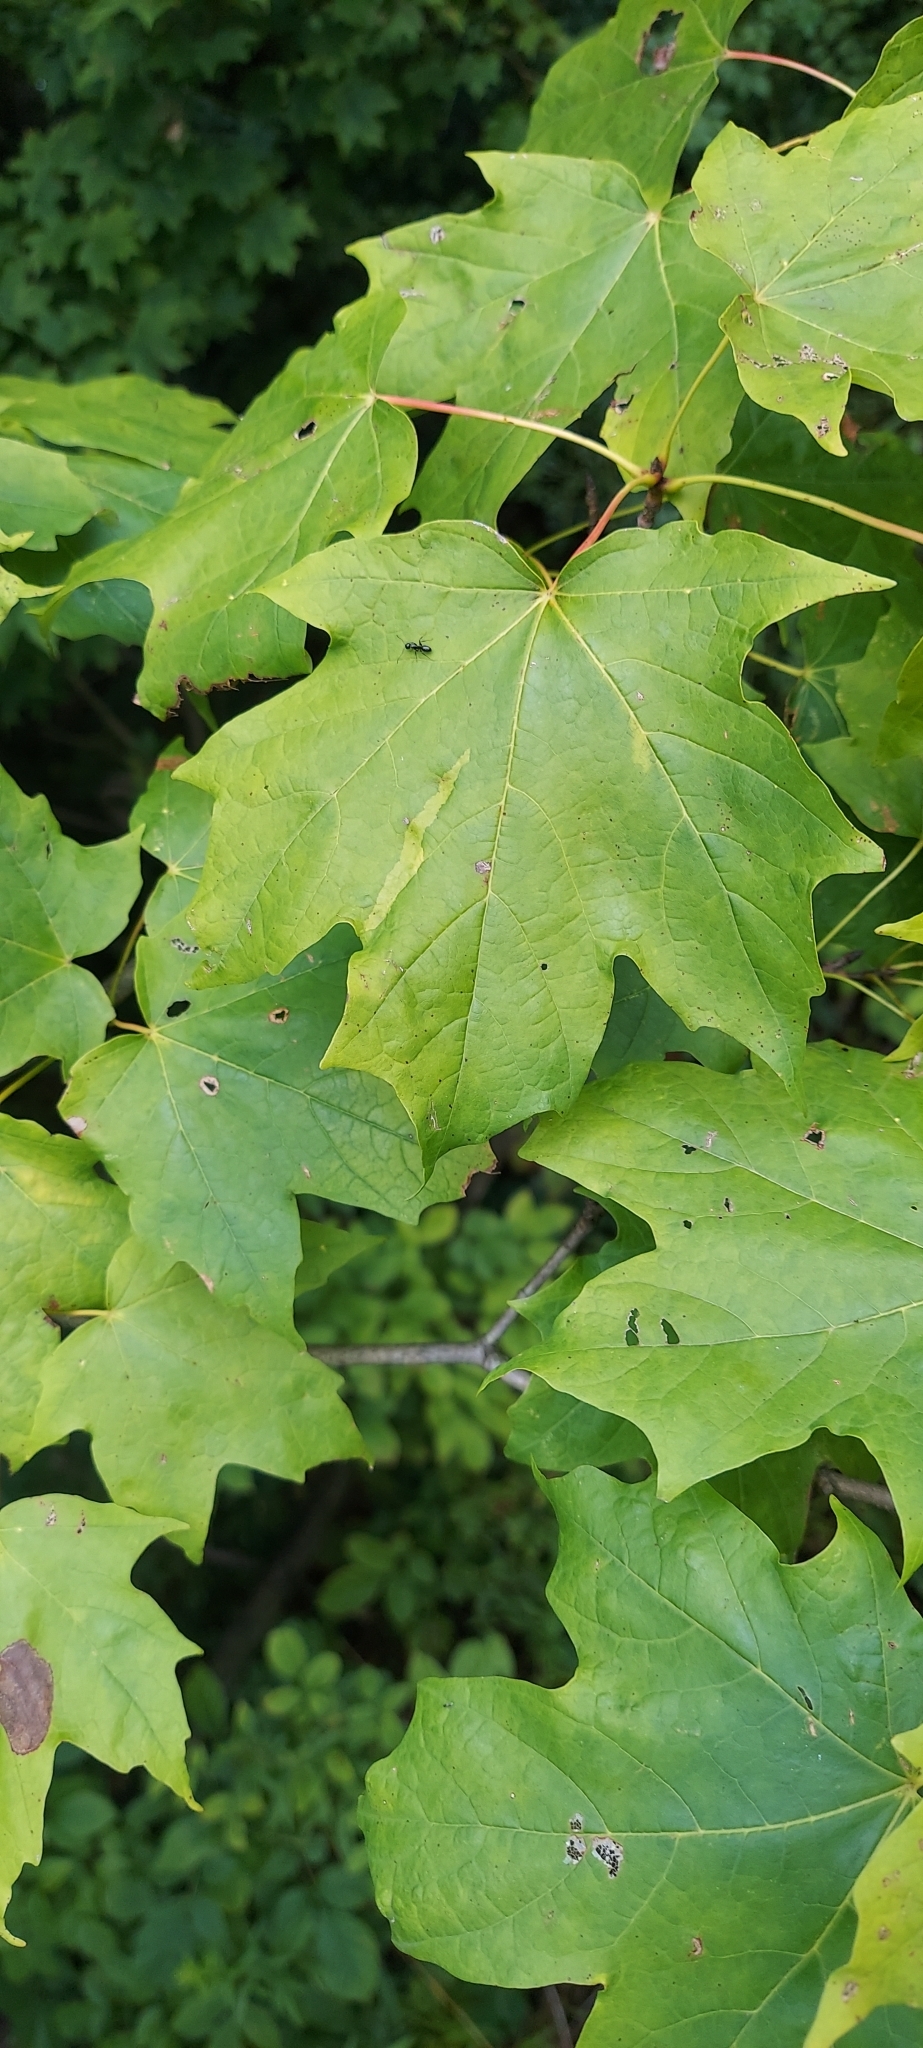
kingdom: Plantae
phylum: Tracheophyta
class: Magnoliopsida
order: Sapindales
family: Sapindaceae
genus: Acer
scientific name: Acer saccharum
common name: Sugar maple
